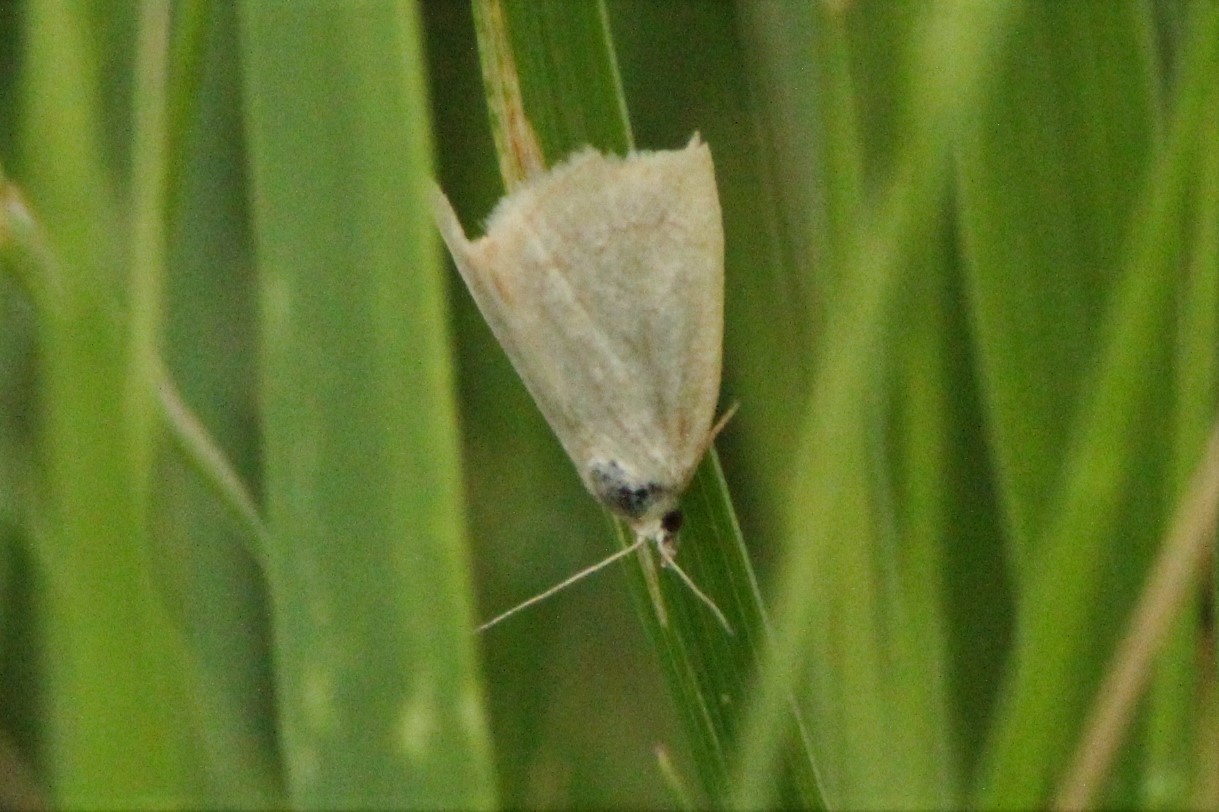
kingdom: Animalia
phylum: Arthropoda
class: Insecta
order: Lepidoptera
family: Noctuidae
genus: Protodeltote
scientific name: Protodeltote albidula
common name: Pale glyph
